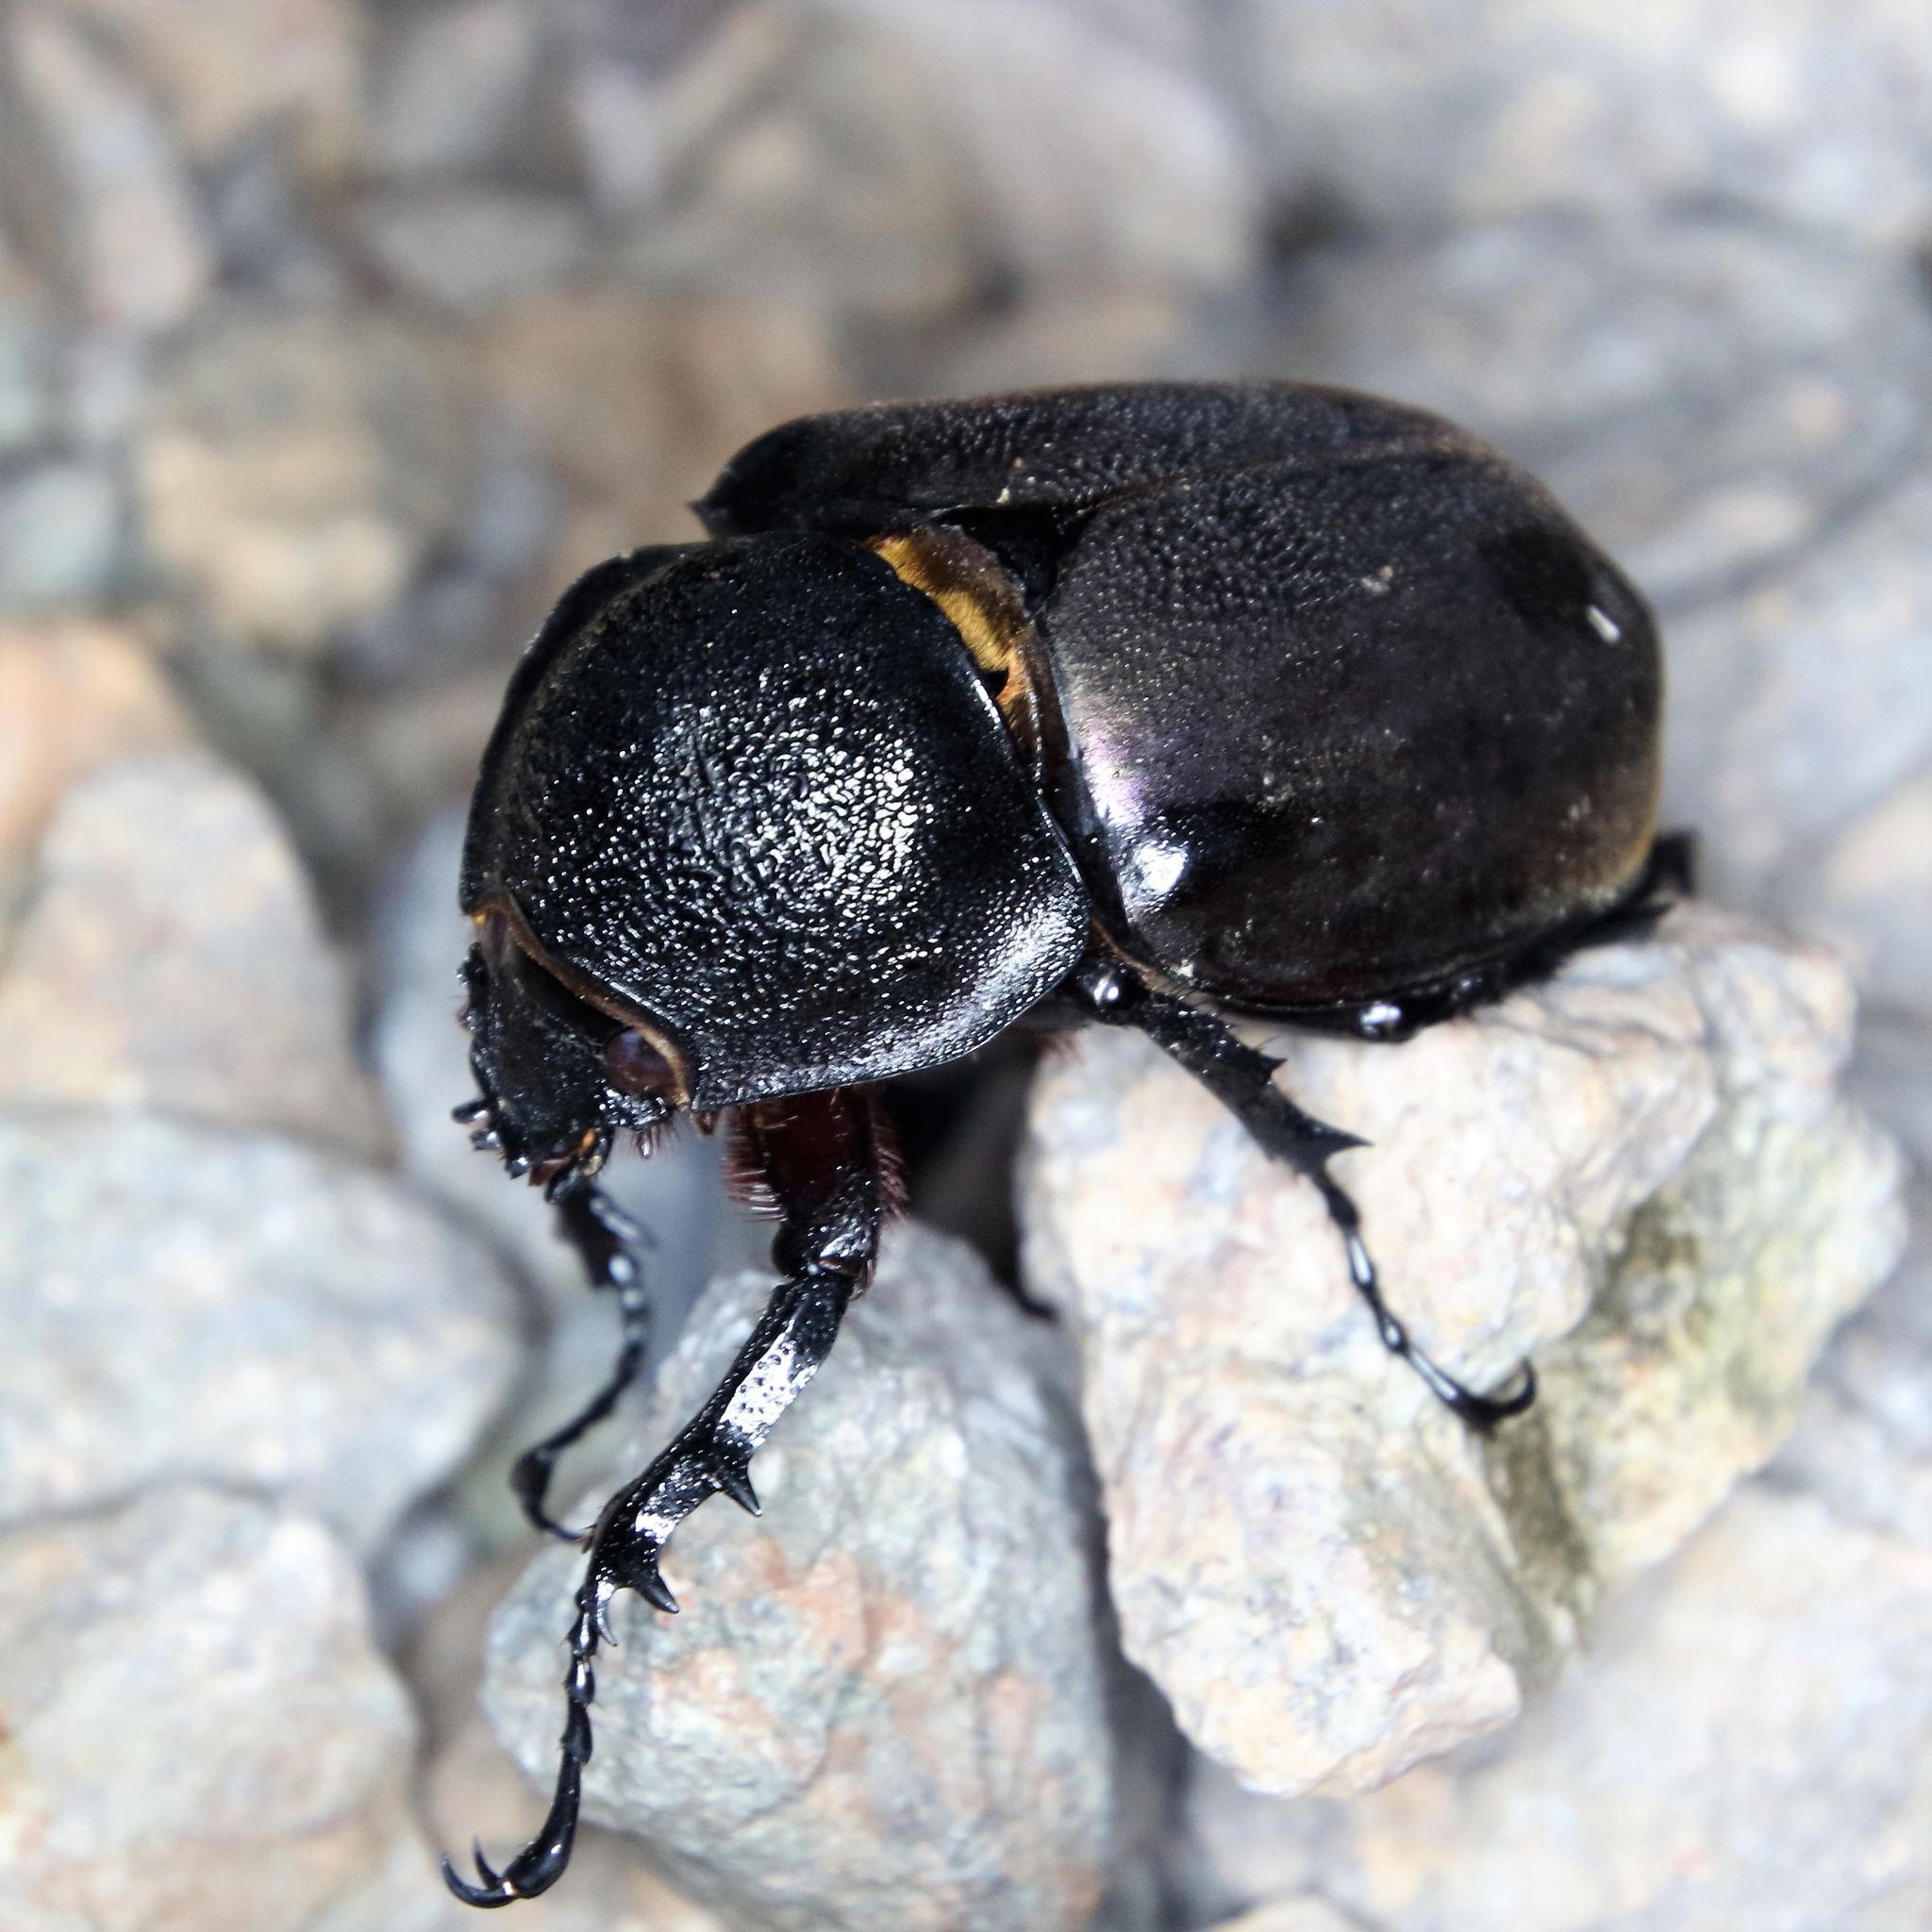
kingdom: Animalia
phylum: Arthropoda
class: Insecta
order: Coleoptera
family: Scarabaeidae
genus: Chalcosoma
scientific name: Chalcosoma atlas
